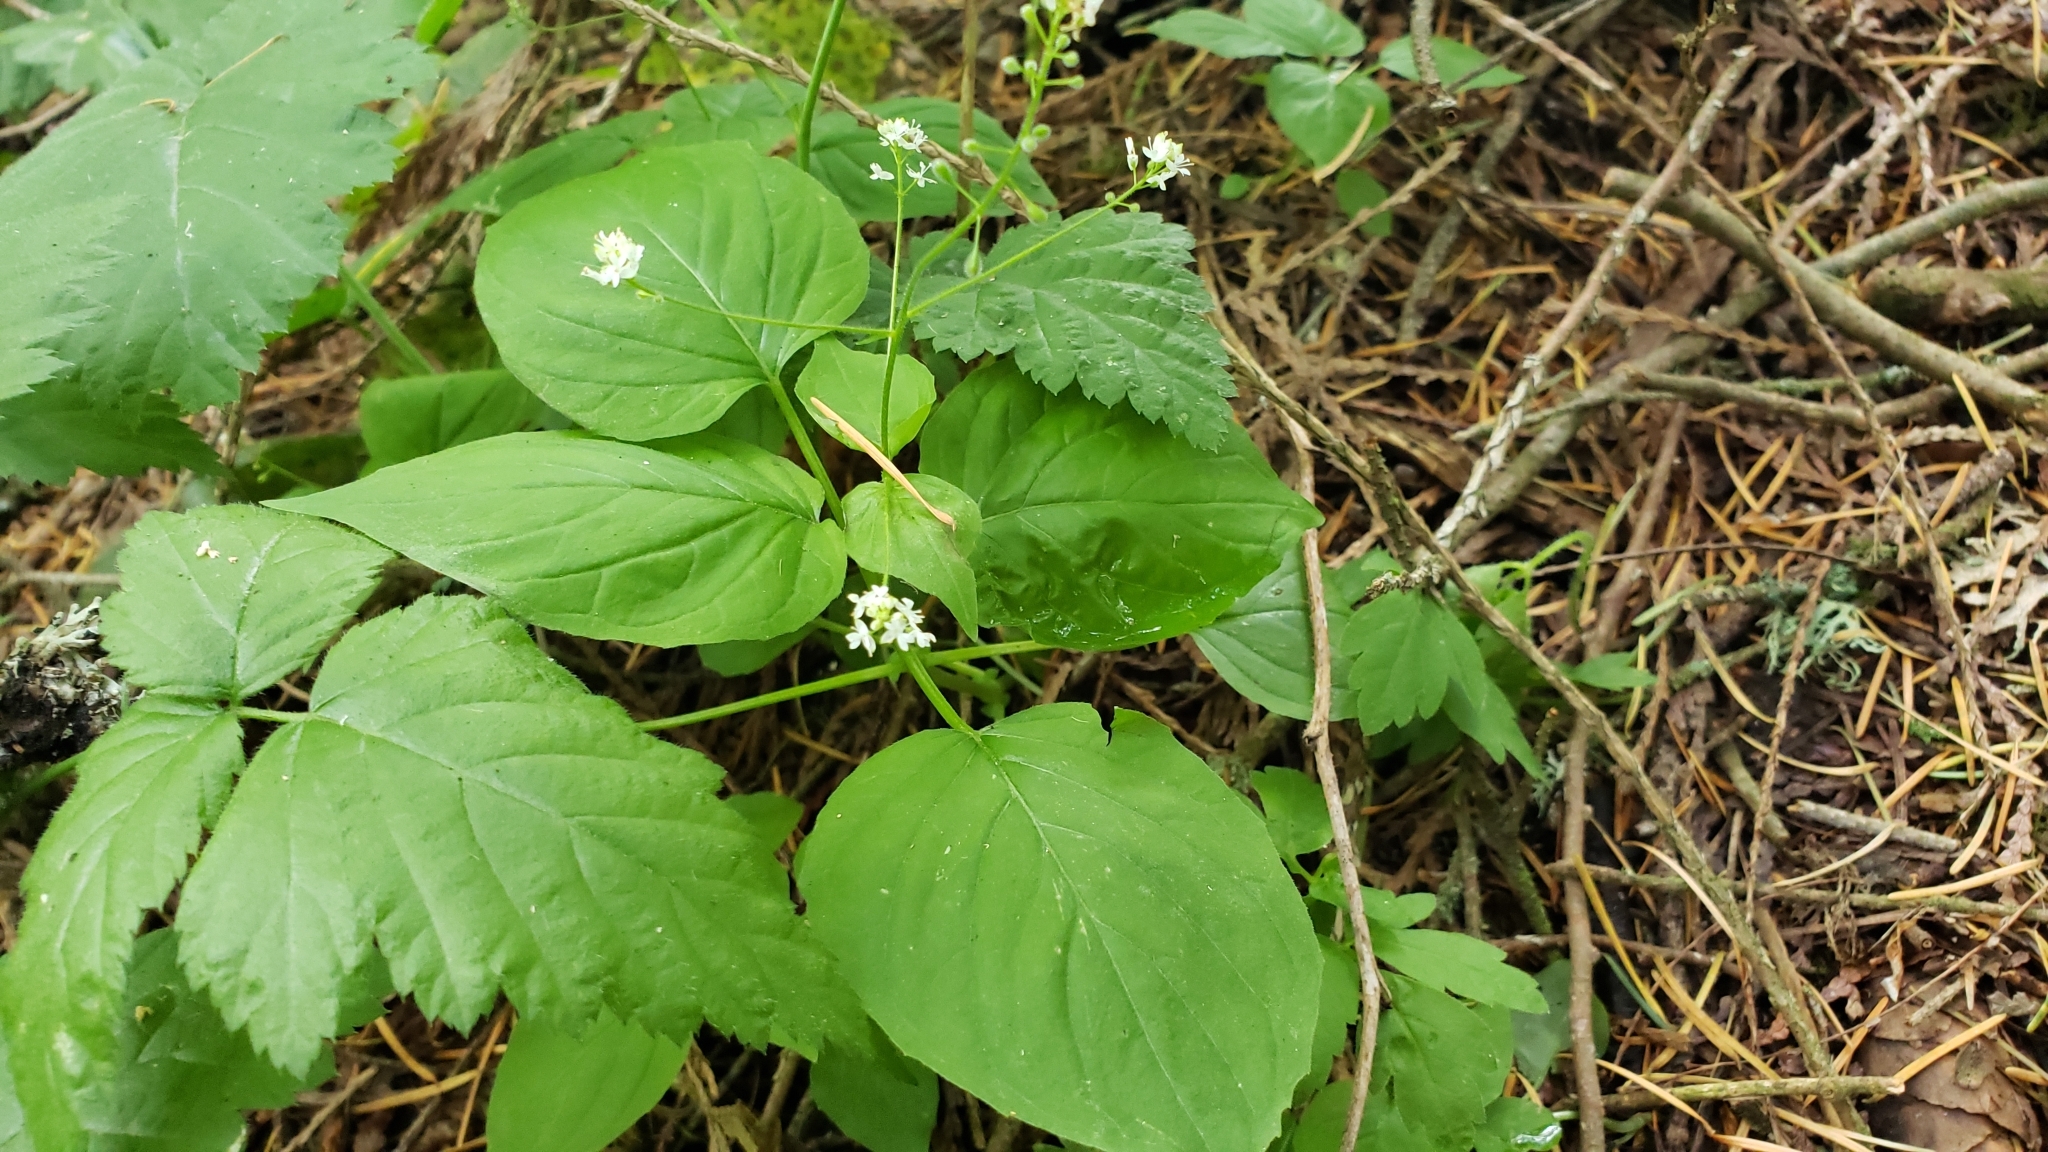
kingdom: Plantae
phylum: Tracheophyta
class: Magnoliopsida
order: Myrtales
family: Onagraceae
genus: Circaea
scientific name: Circaea alpina
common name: Alpine enchanter's-nightshade
